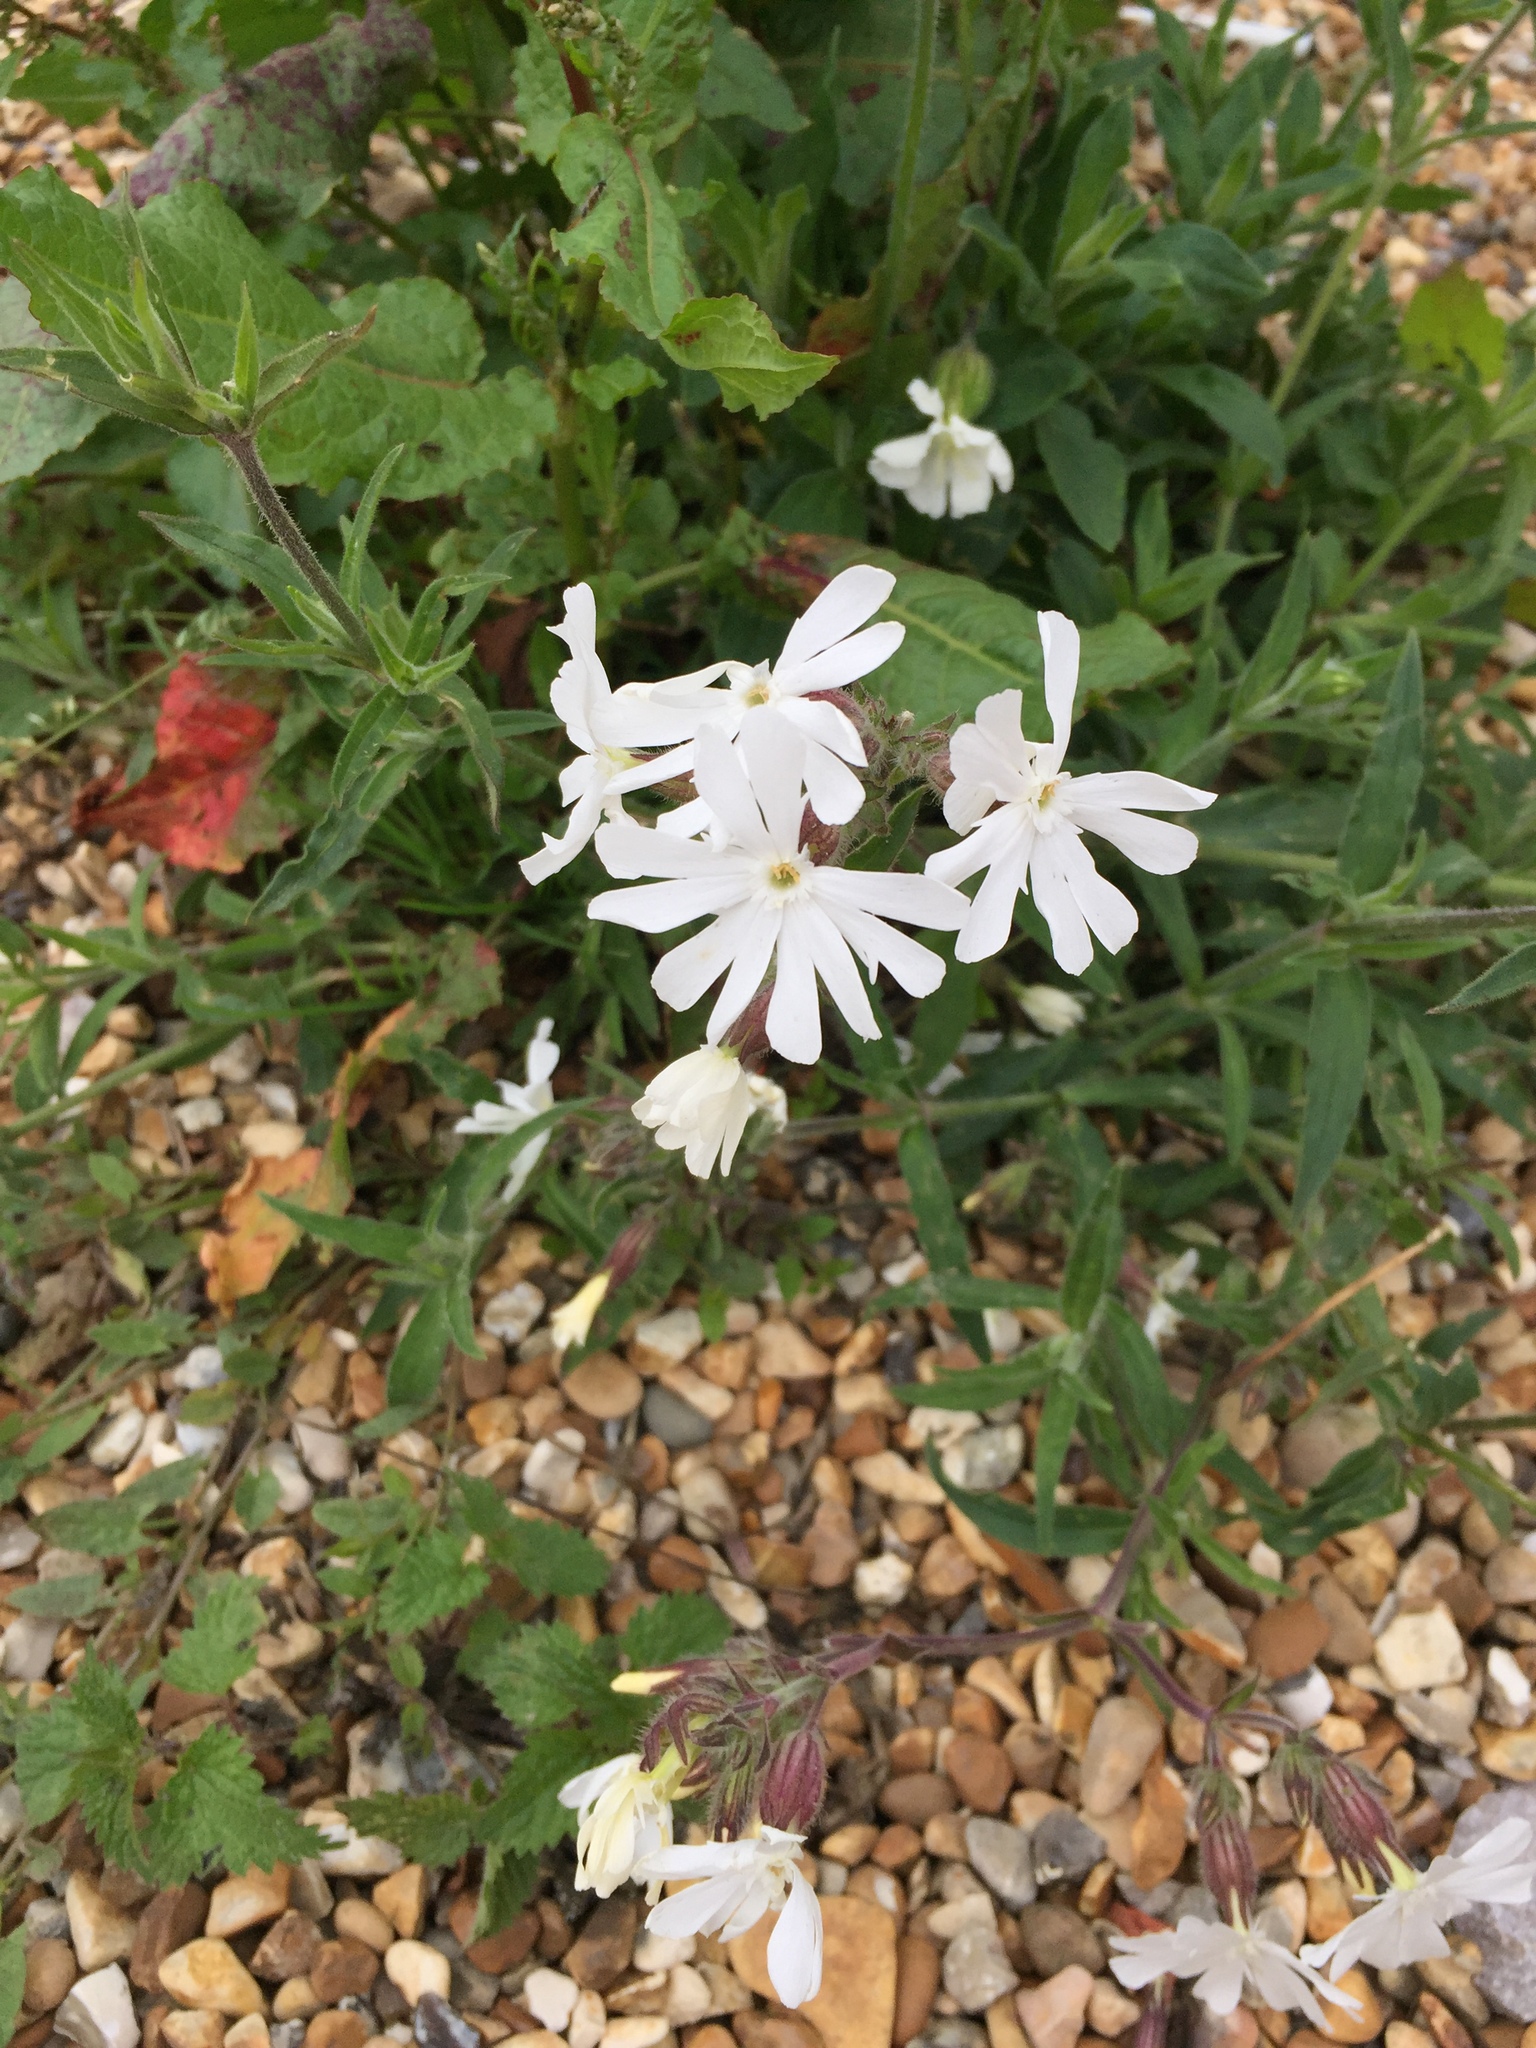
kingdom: Plantae
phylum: Tracheophyta
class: Magnoliopsida
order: Caryophyllales
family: Caryophyllaceae
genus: Silene
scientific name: Silene latifolia
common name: White campion
